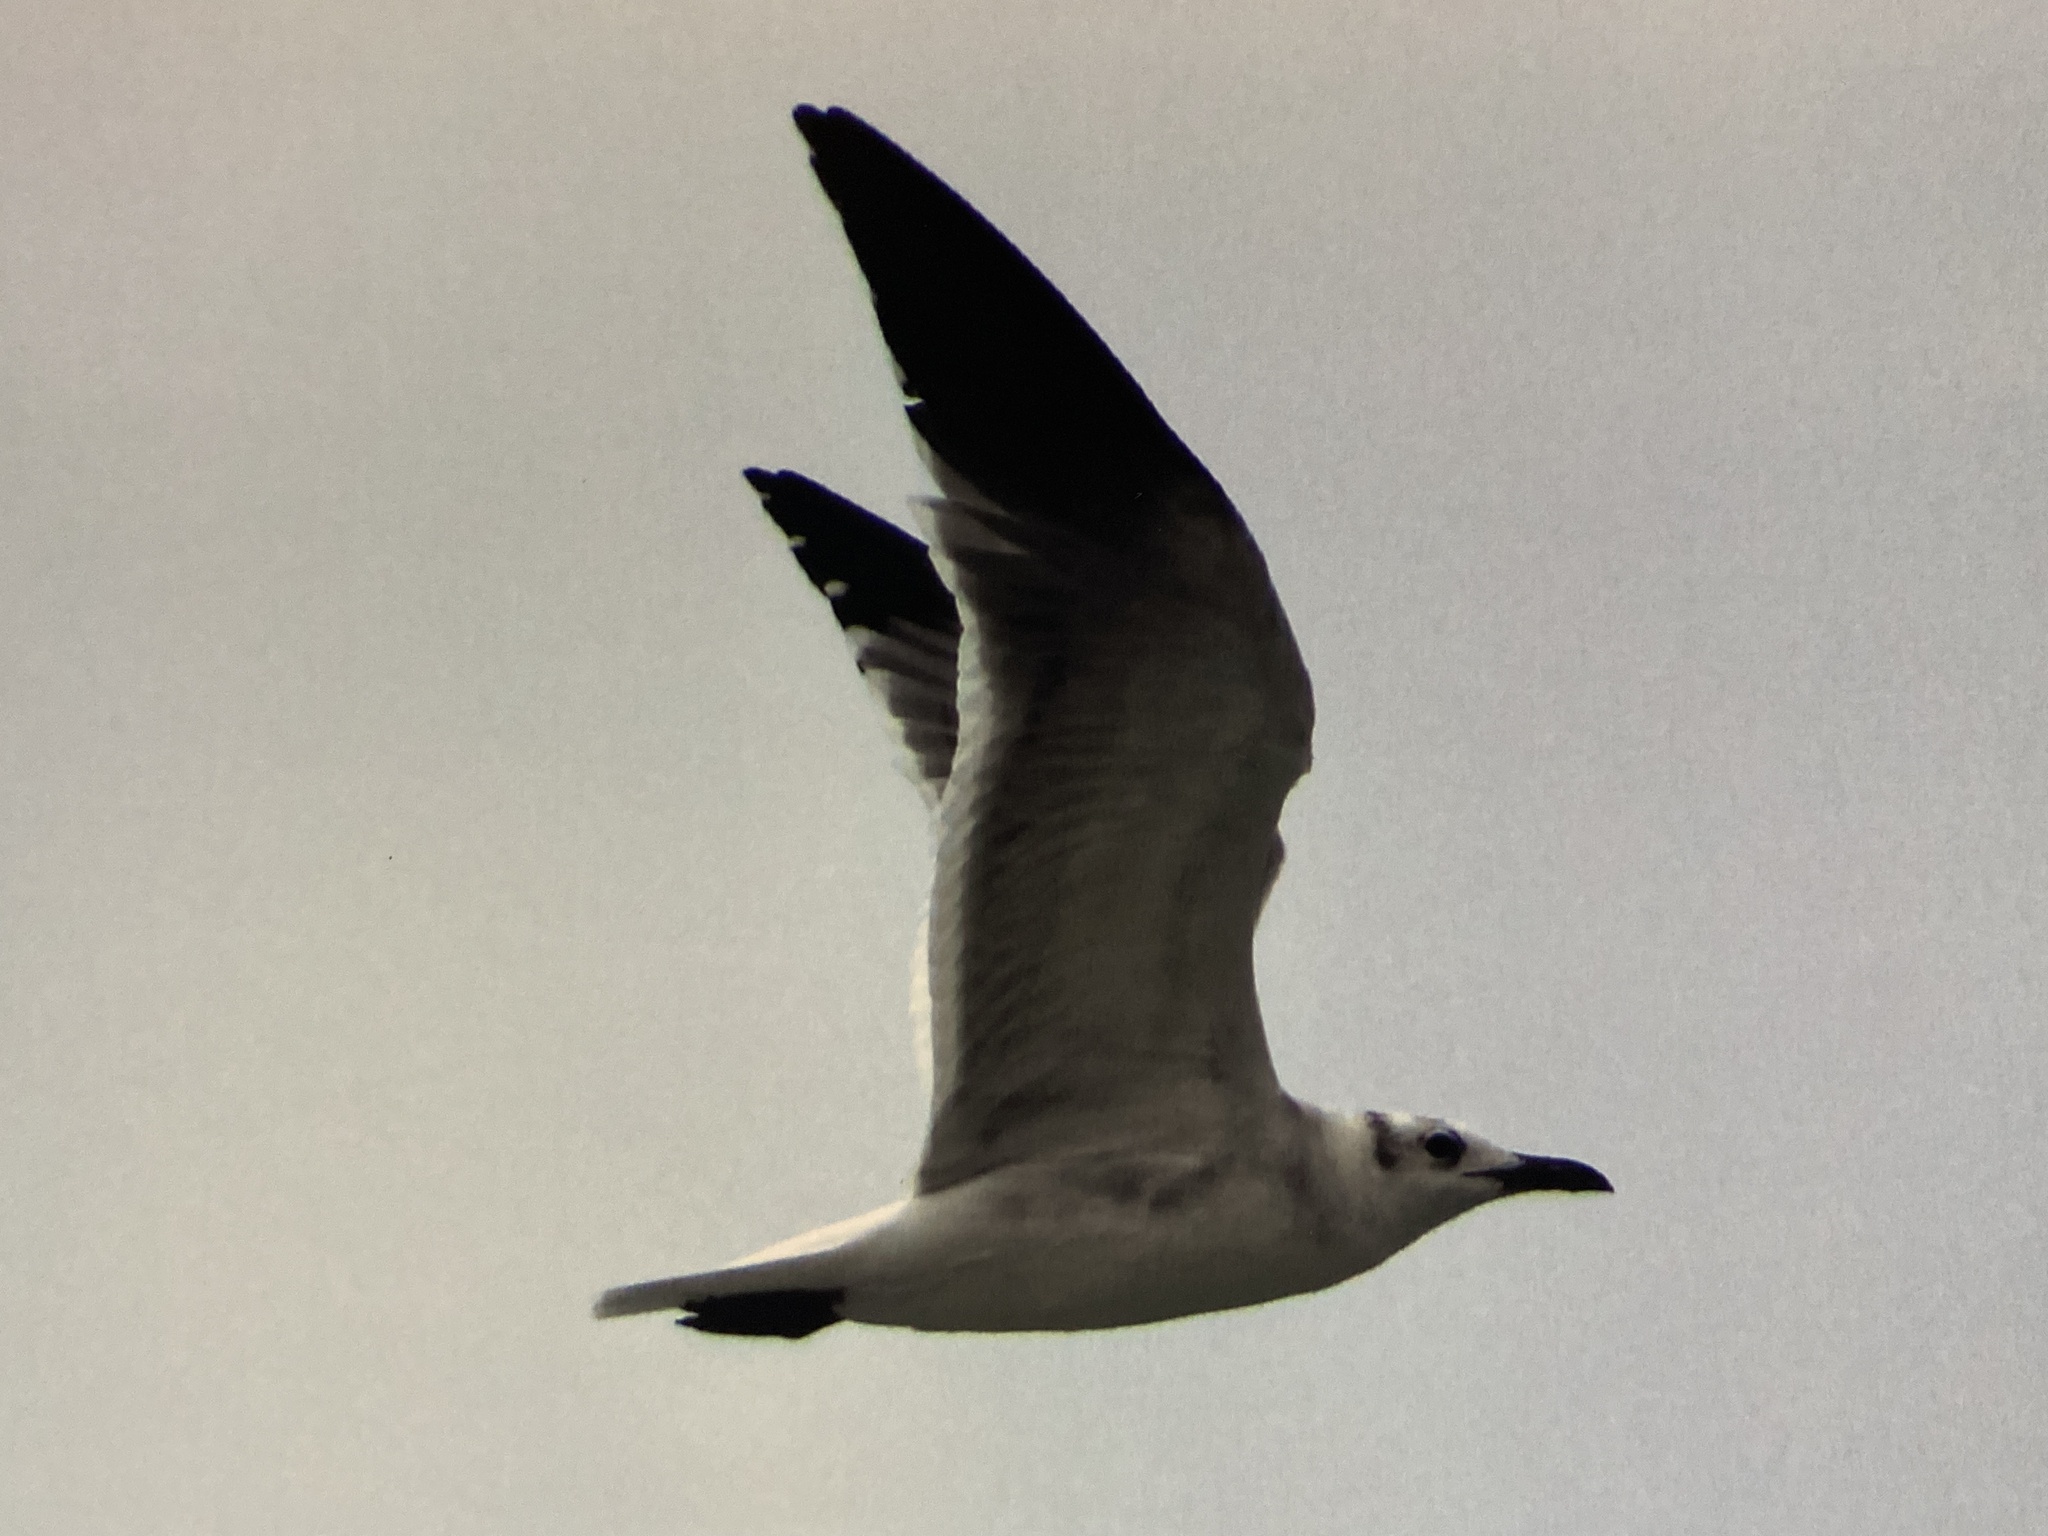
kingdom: Animalia
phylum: Chordata
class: Aves
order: Charadriiformes
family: Laridae
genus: Leucophaeus
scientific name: Leucophaeus atricilla
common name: Laughing gull
